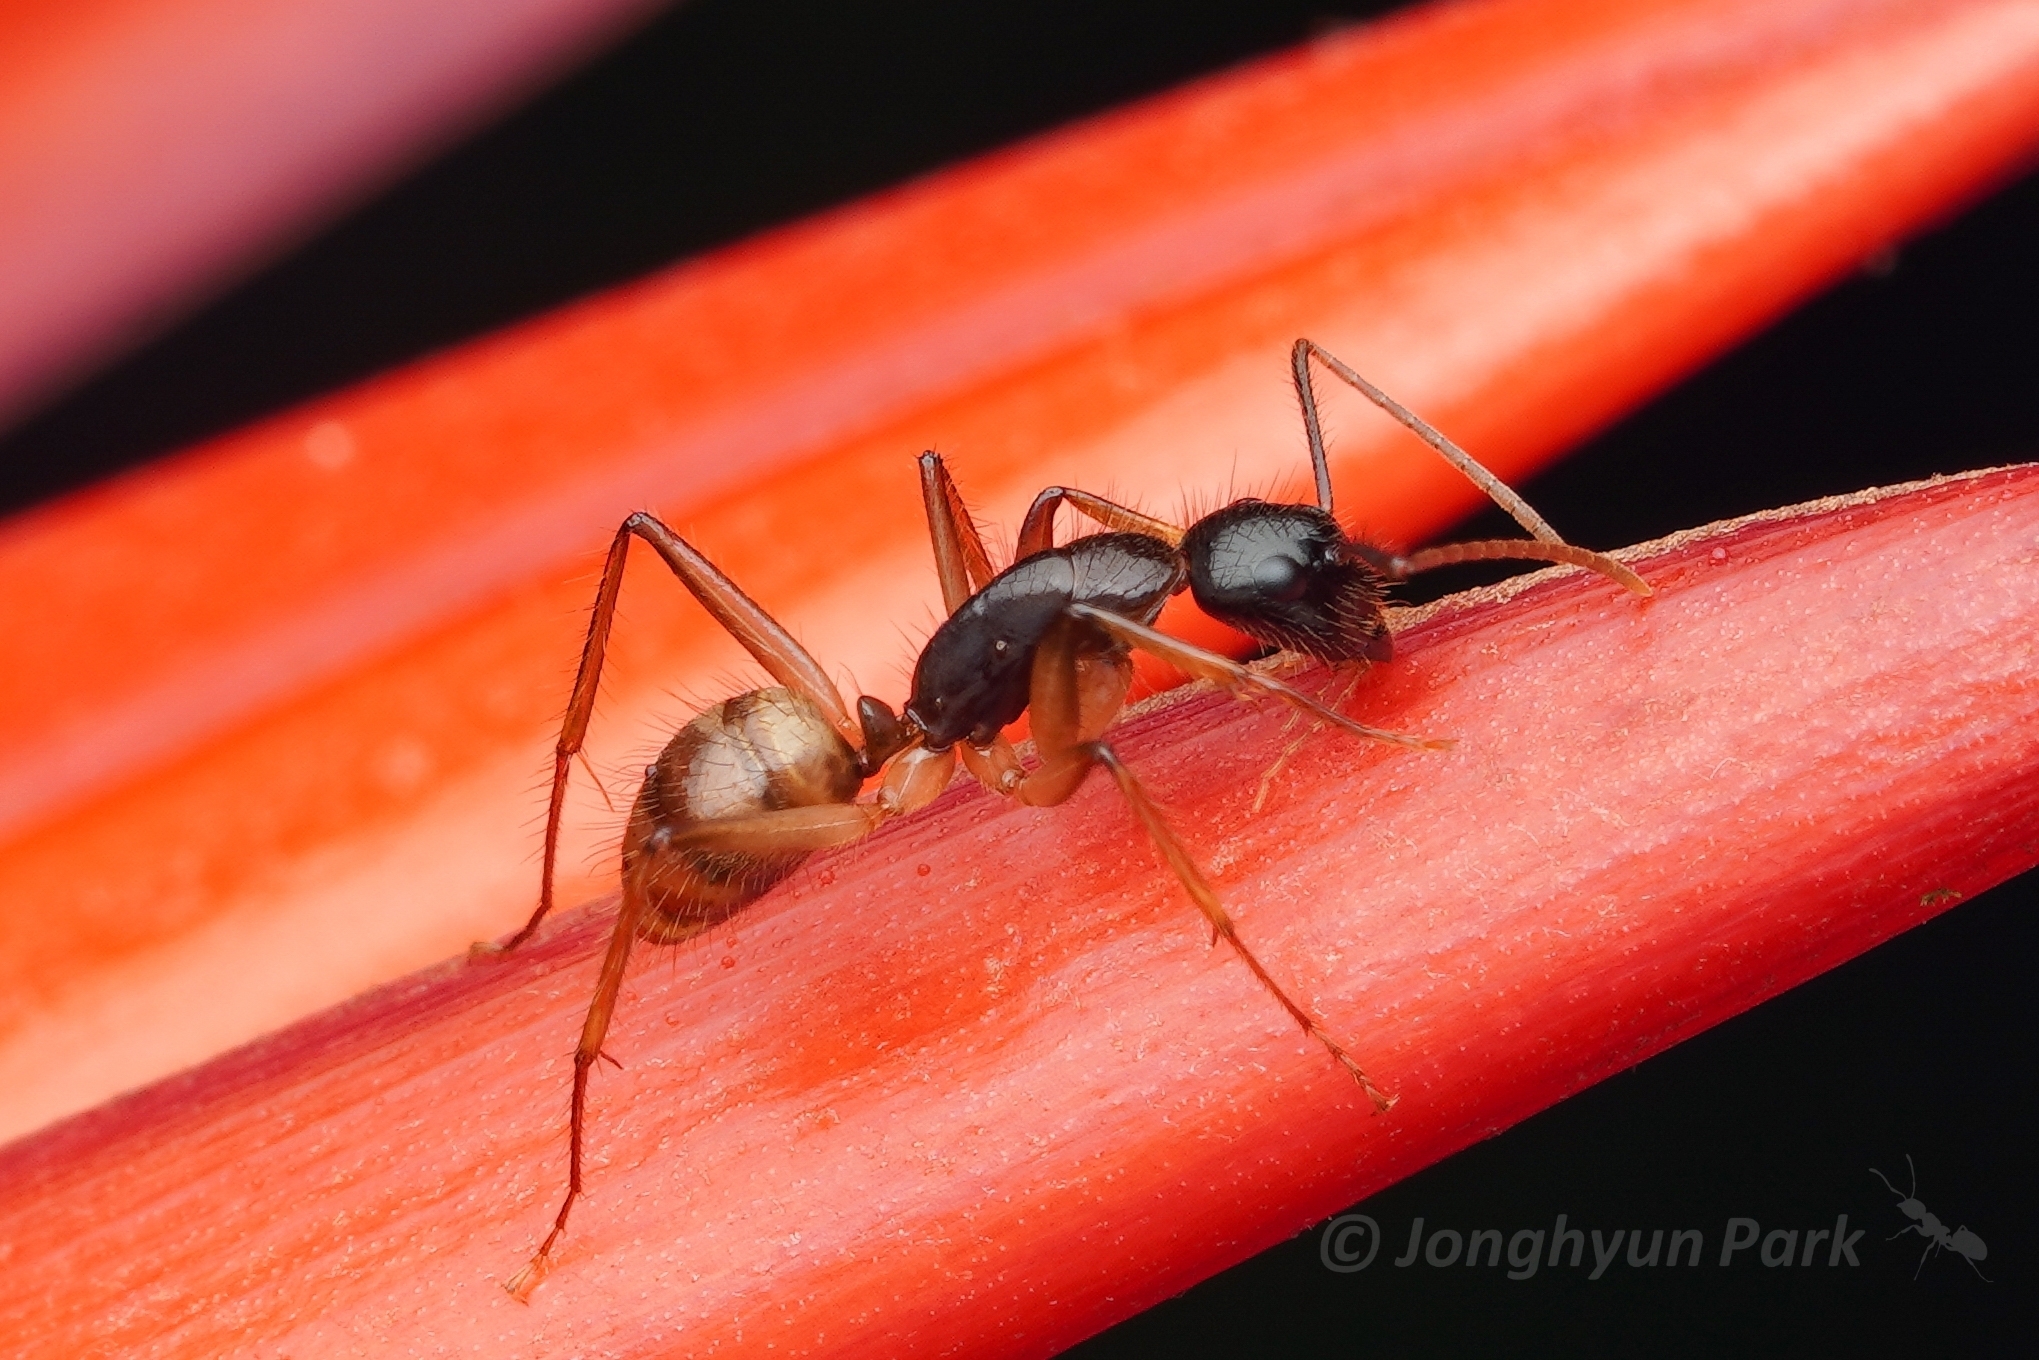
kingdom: Animalia
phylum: Arthropoda
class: Insecta
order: Hymenoptera
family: Formicidae
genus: Camponotus
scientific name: Camponotus atriceps
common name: Florida carpenter ant
